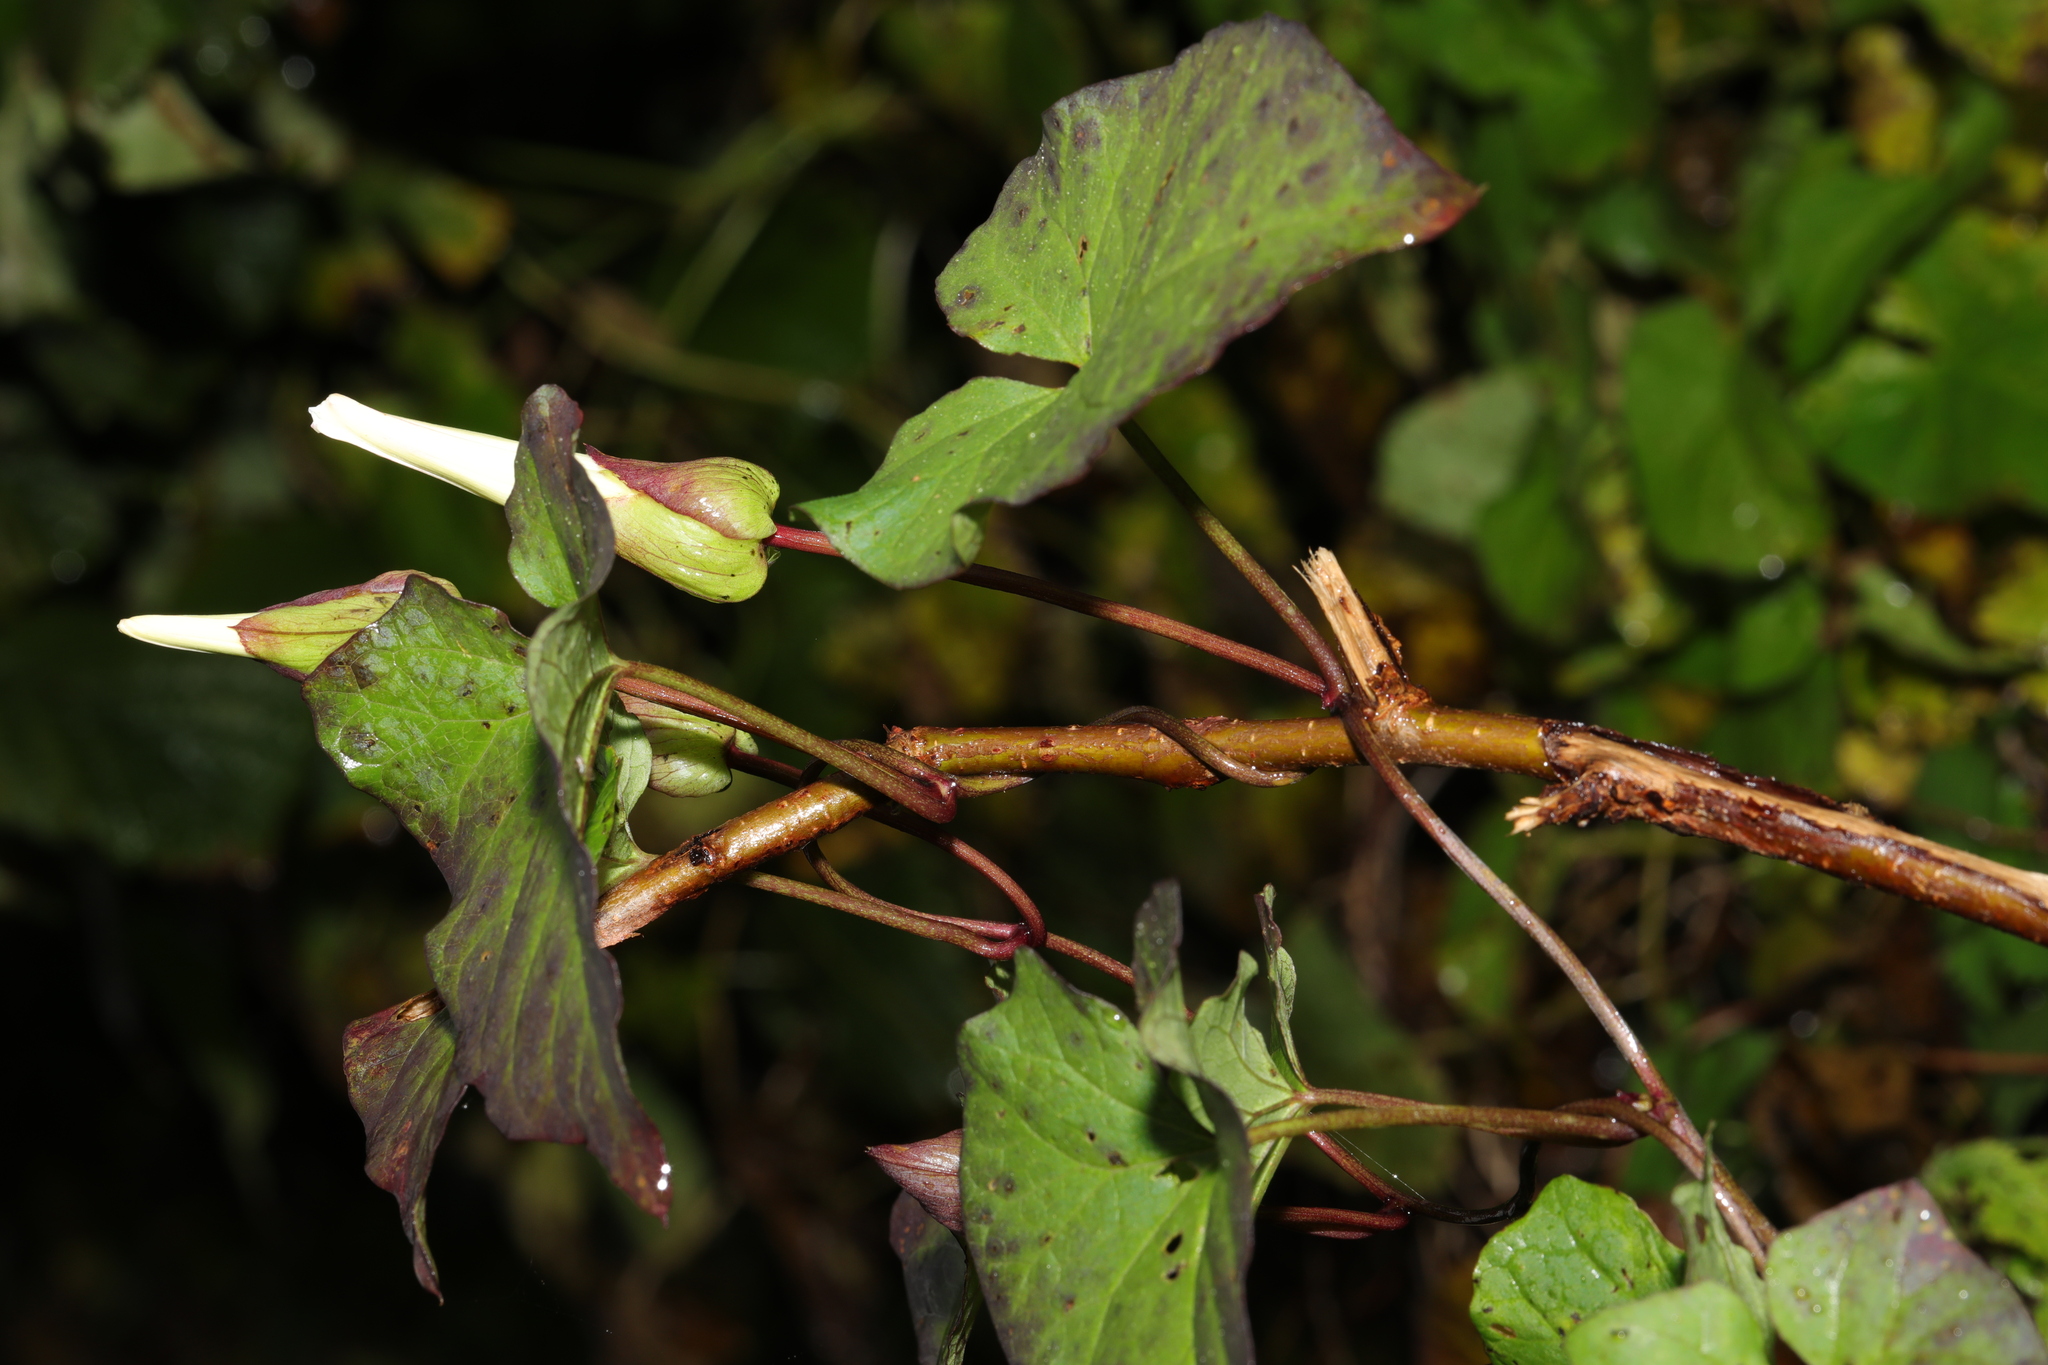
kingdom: Plantae
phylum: Tracheophyta
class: Magnoliopsida
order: Solanales
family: Convolvulaceae
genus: Calystegia
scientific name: Calystegia silvatica
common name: Large bindweed
